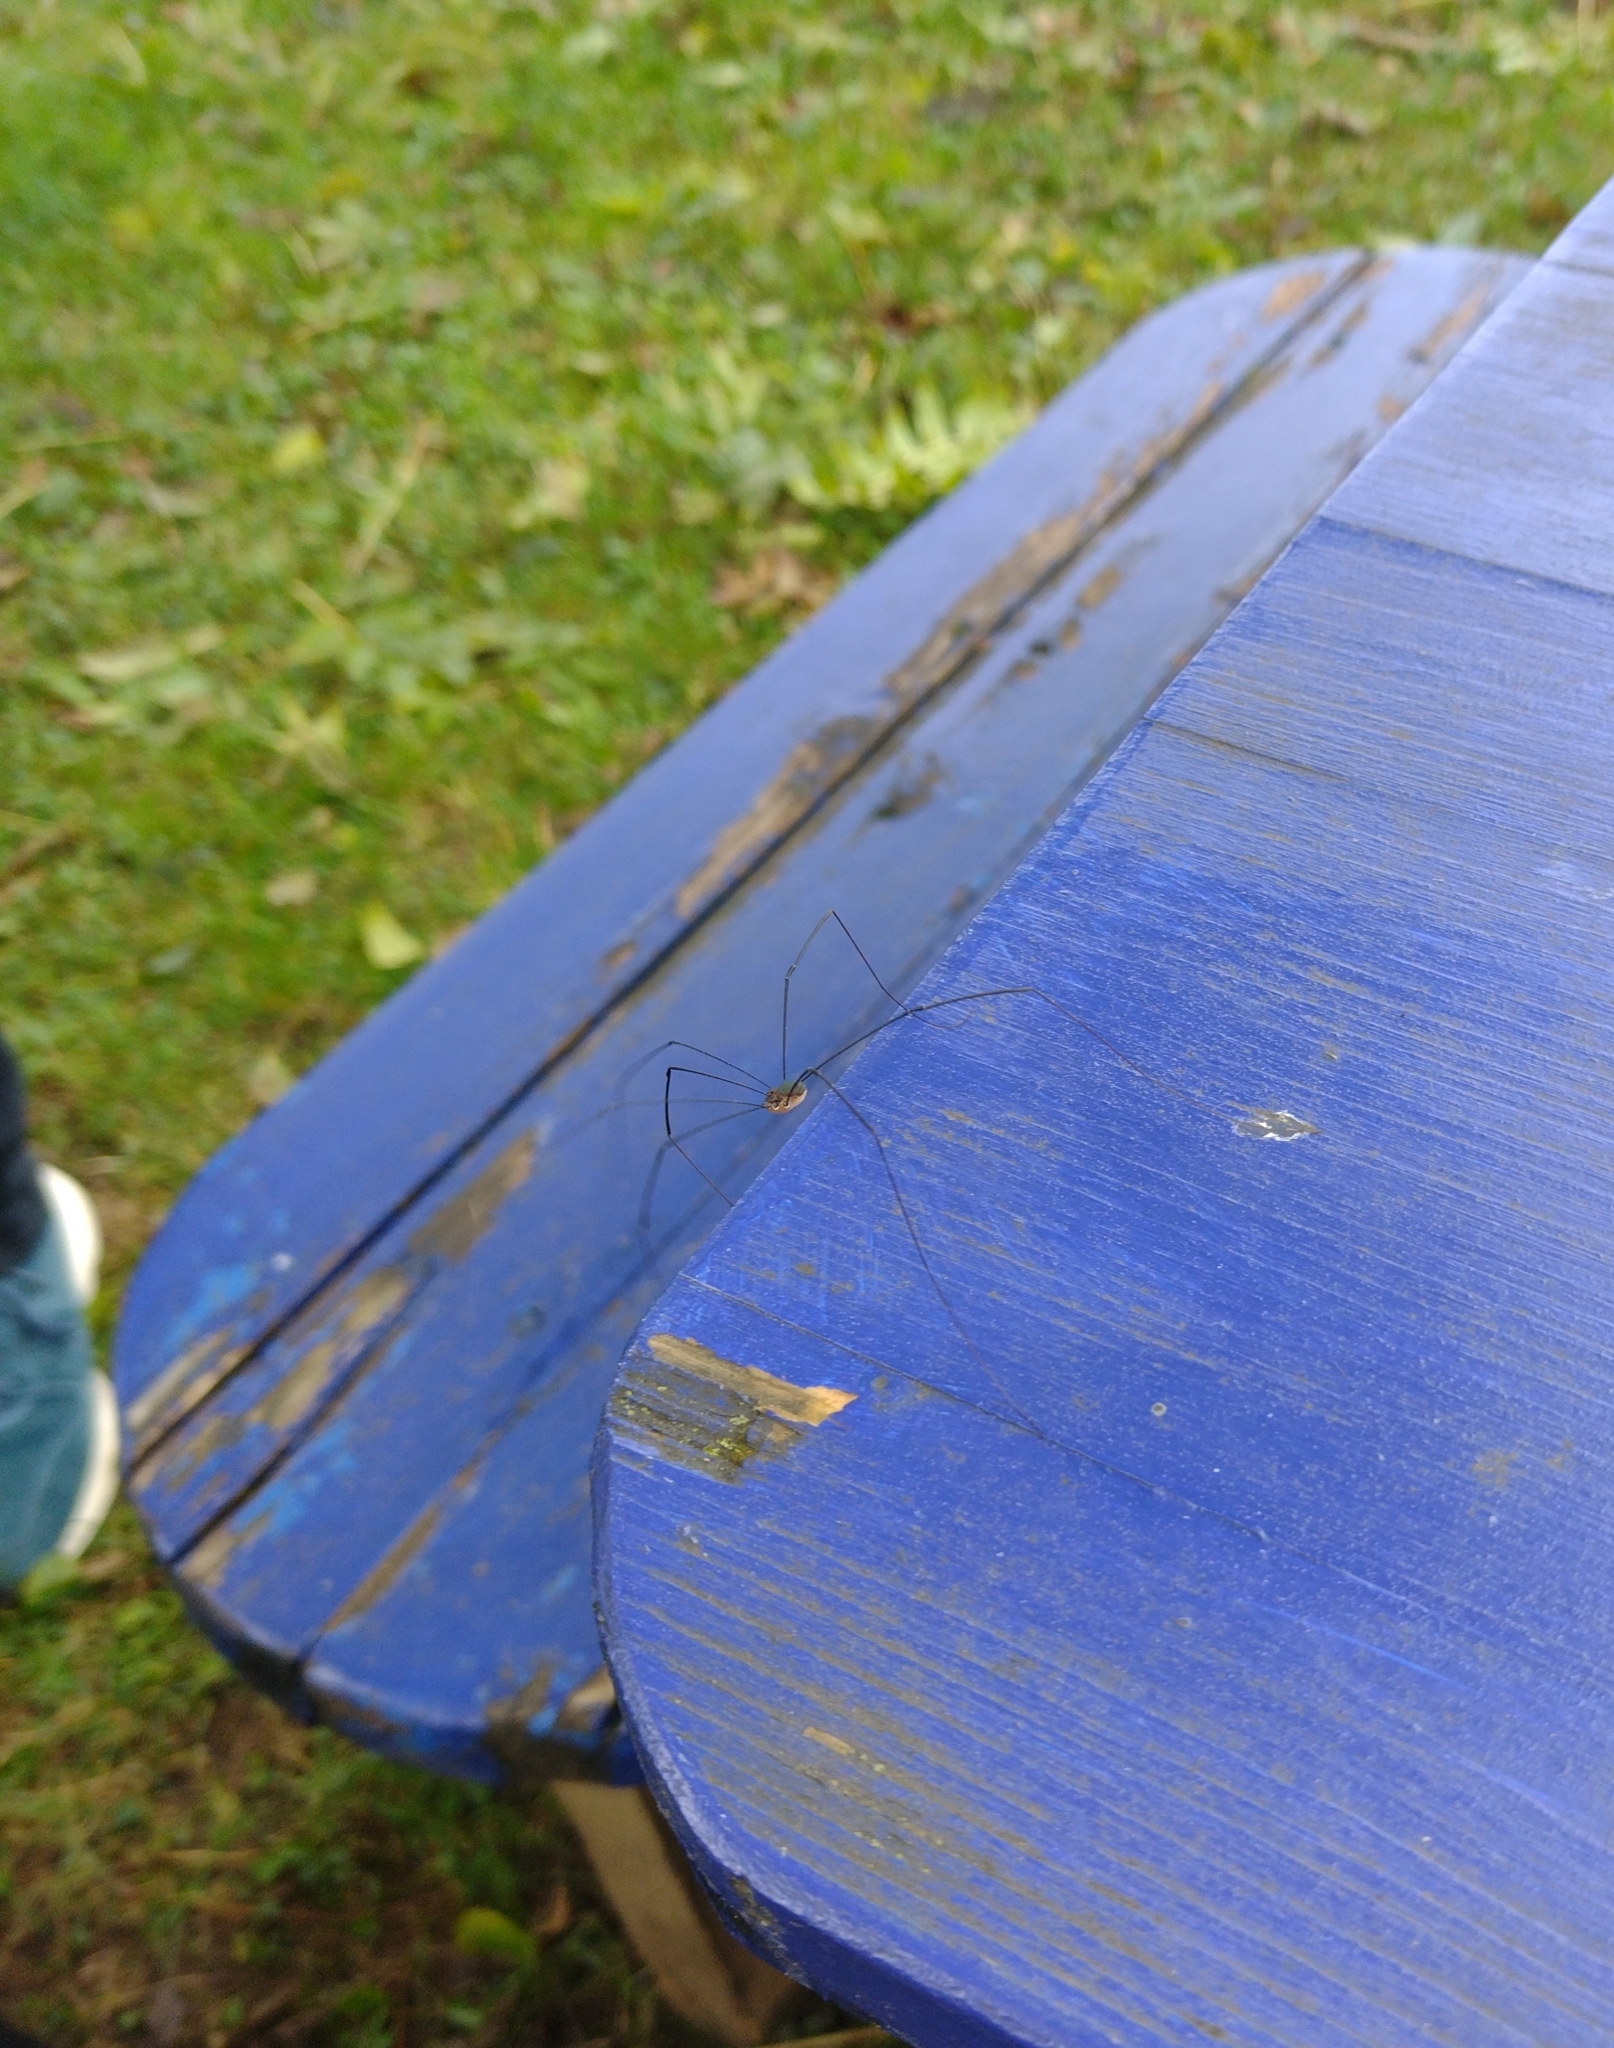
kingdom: Animalia
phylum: Arthropoda
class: Arachnida
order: Opiliones
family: Sclerosomatidae
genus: Leiobunum
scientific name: Leiobunum
